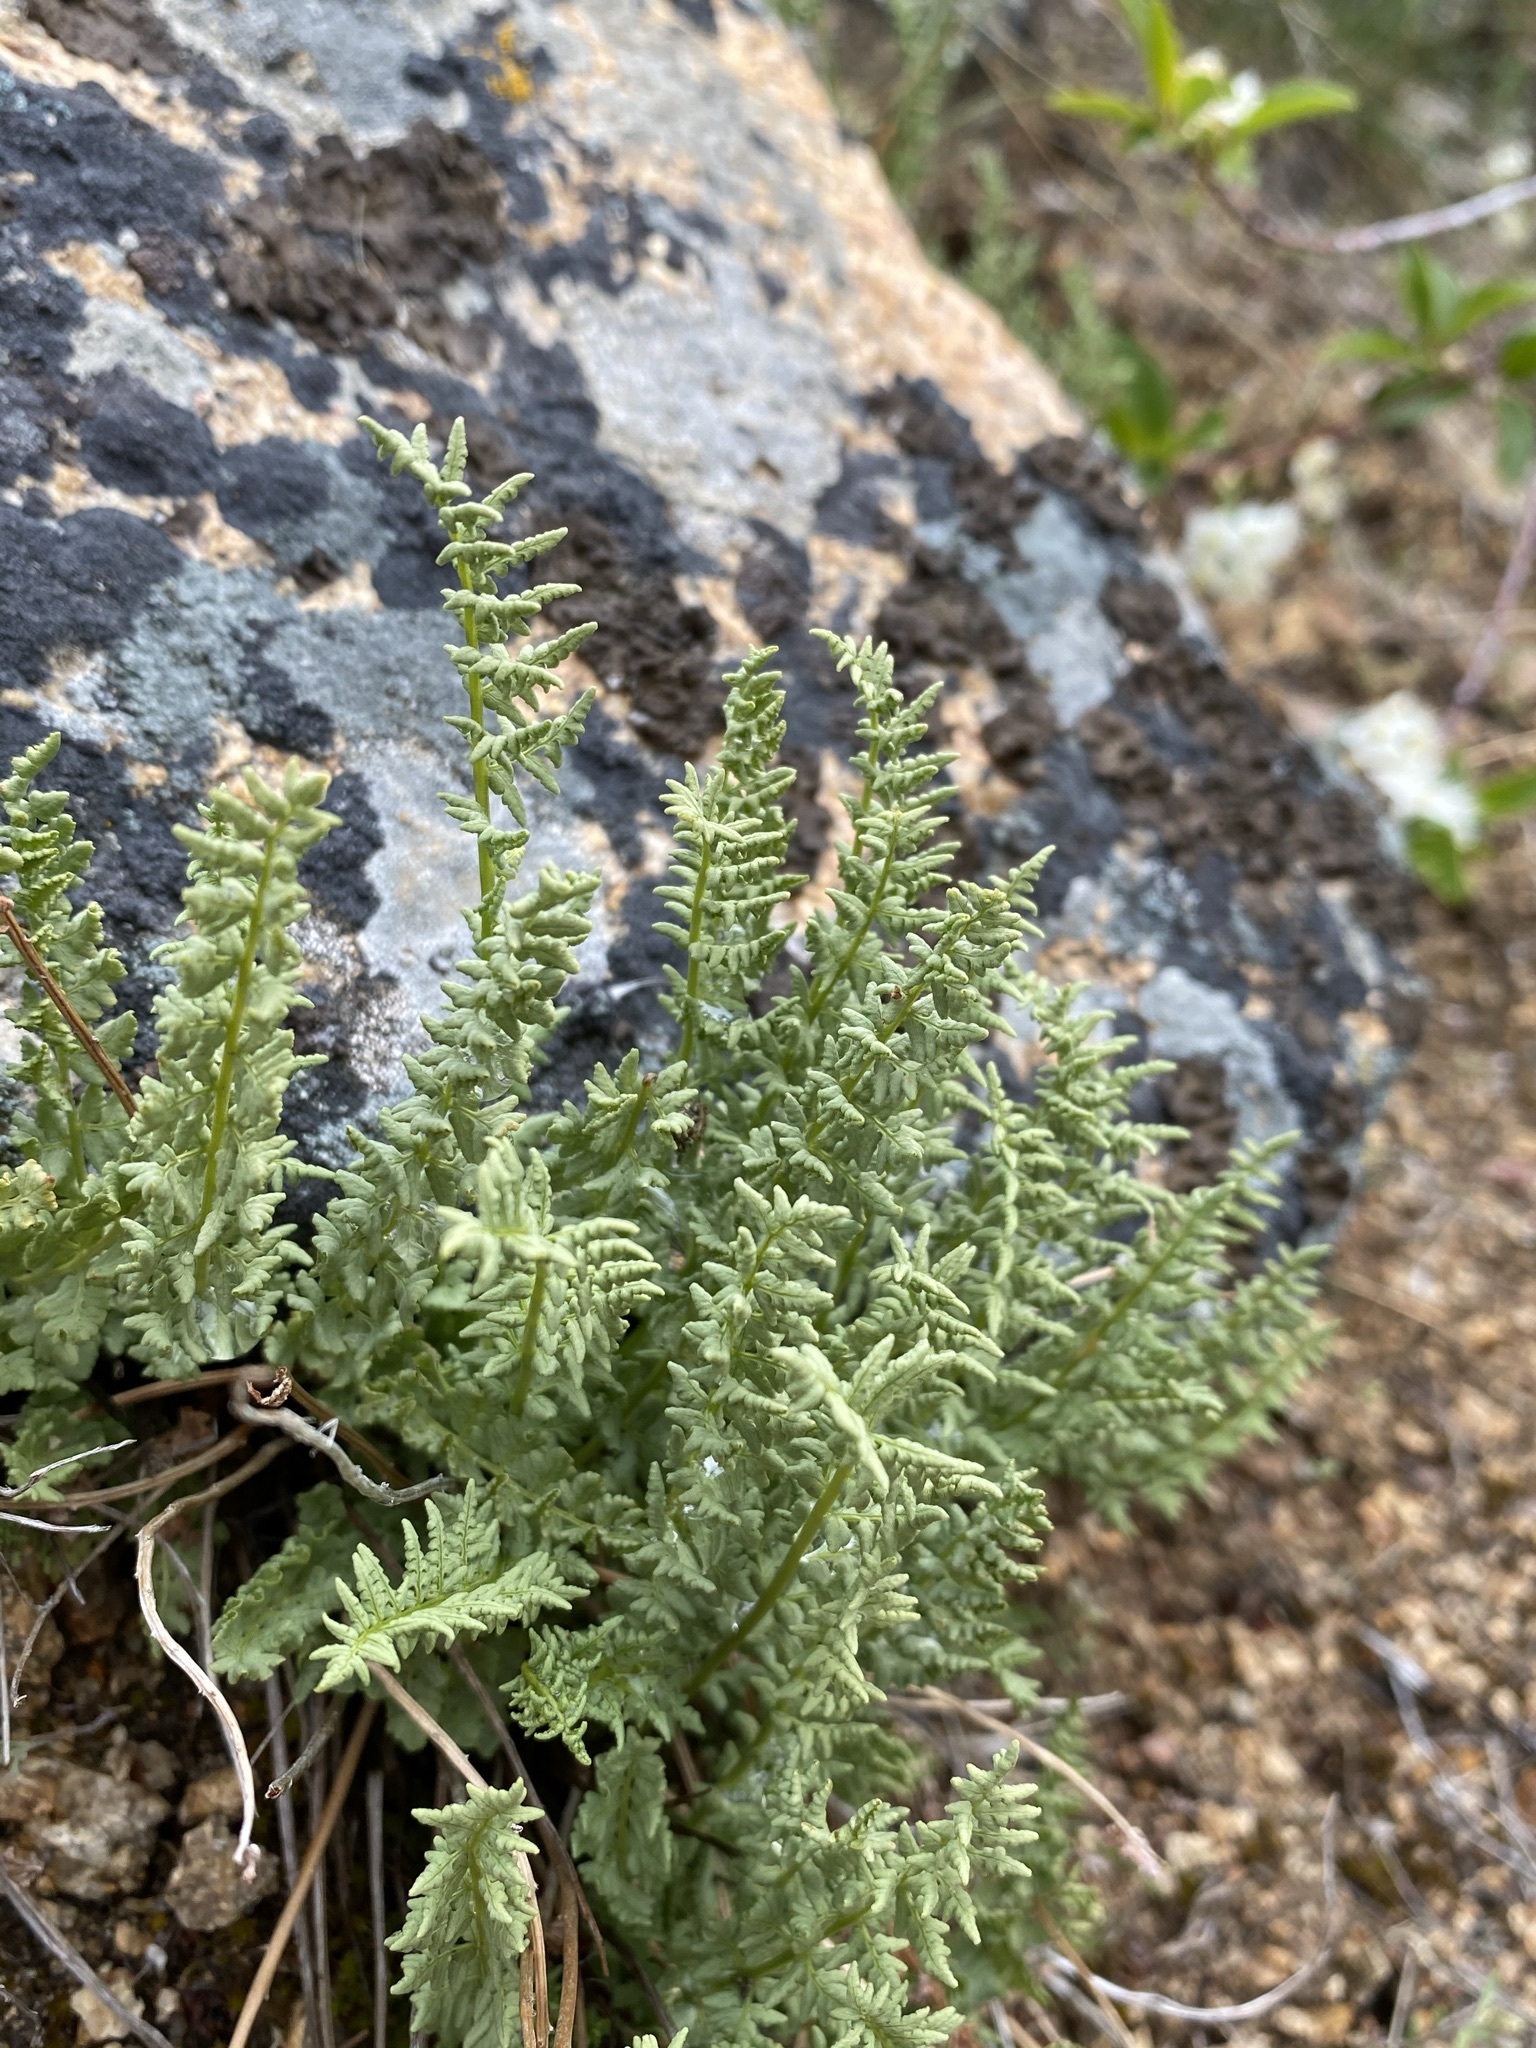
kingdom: Plantae
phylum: Tracheophyta
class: Polypodiopsida
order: Polypodiales
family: Woodsiaceae
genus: Physematium
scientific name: Physematium oreganum
